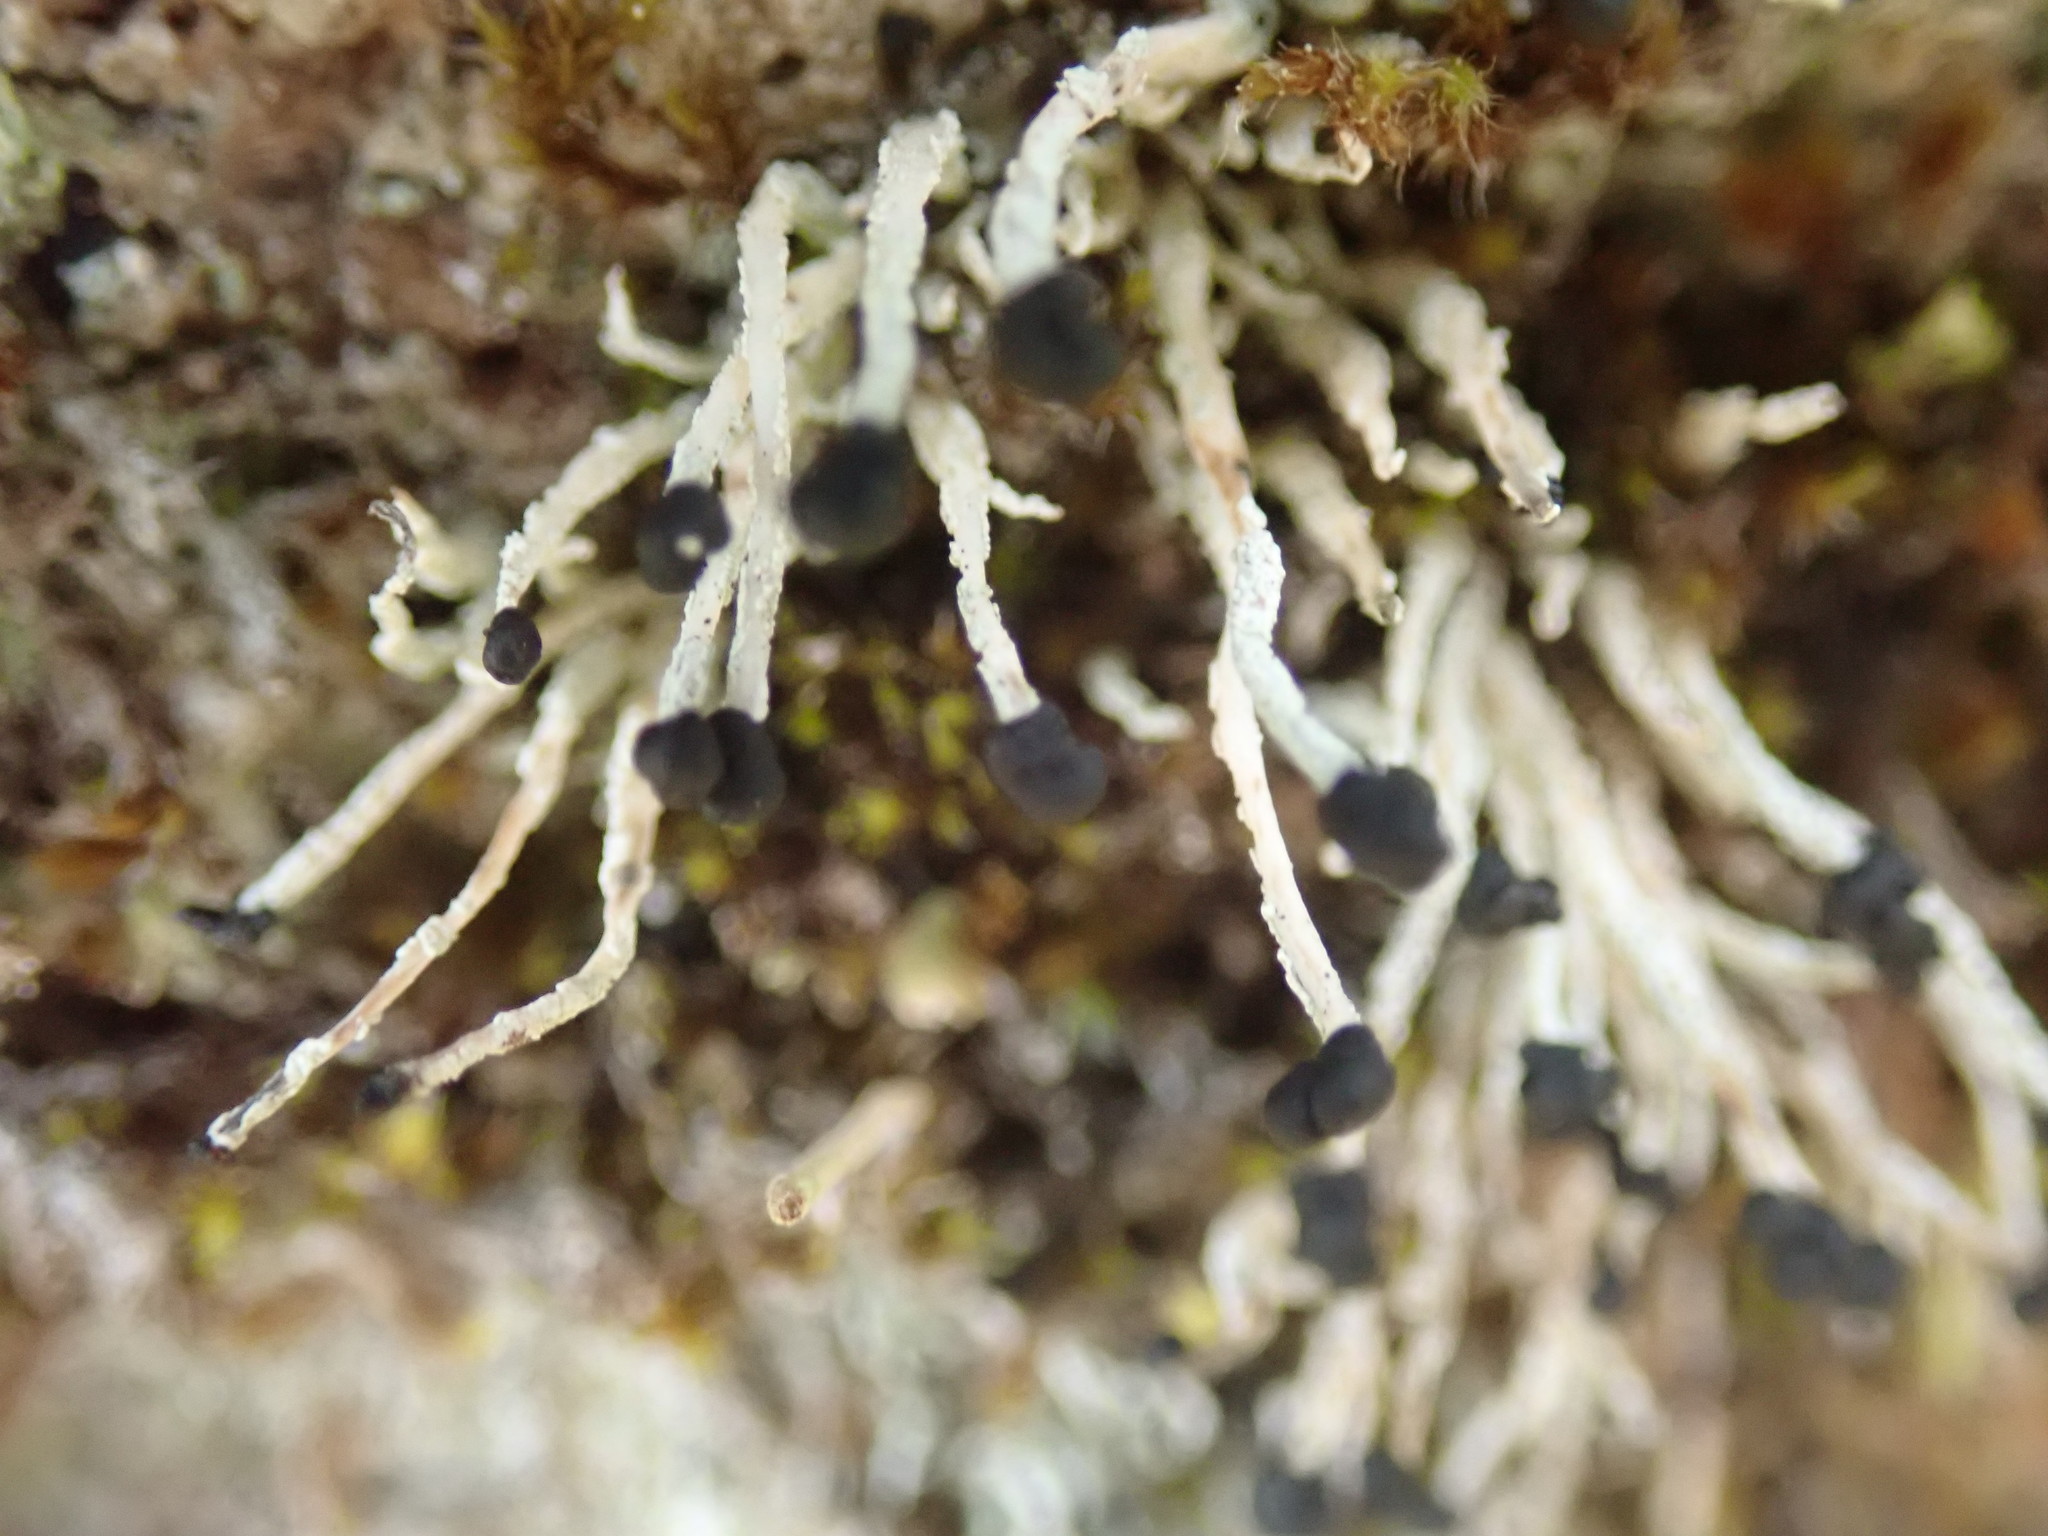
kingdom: Fungi
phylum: Ascomycota
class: Lecanoromycetes
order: Lecanorales
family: Cladoniaceae
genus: Pilophorus
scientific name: Pilophorus acicularis
